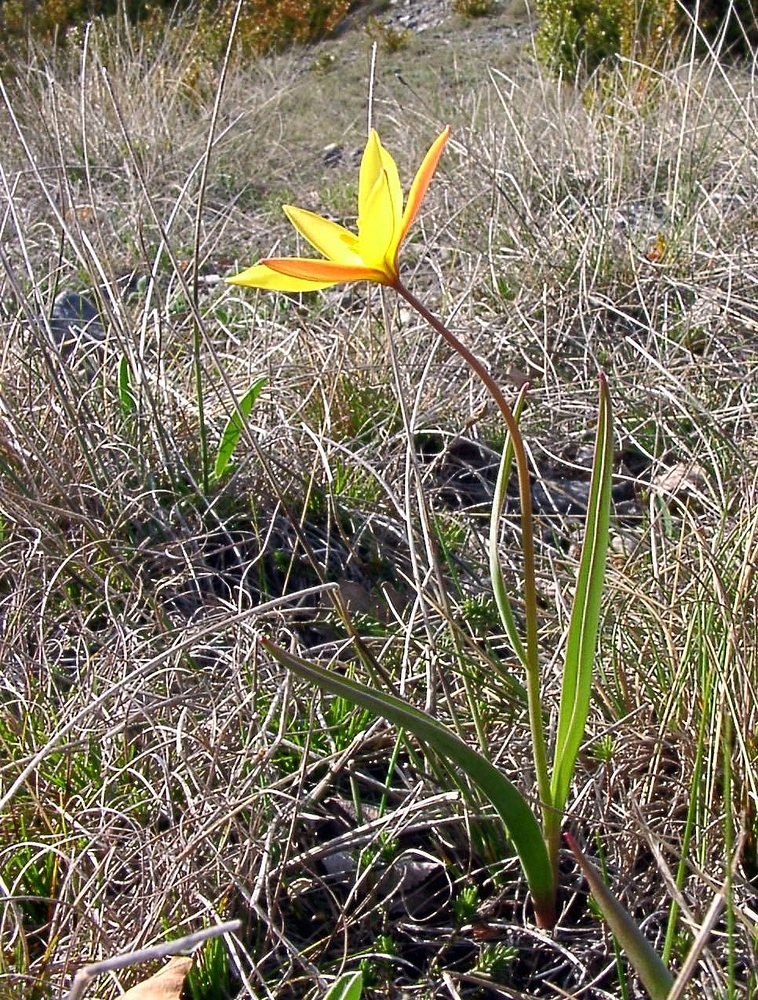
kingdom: Plantae
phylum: Tracheophyta
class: Liliopsida
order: Liliales
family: Liliaceae
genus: Tulipa
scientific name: Tulipa sylvestris
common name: Wild tulip
